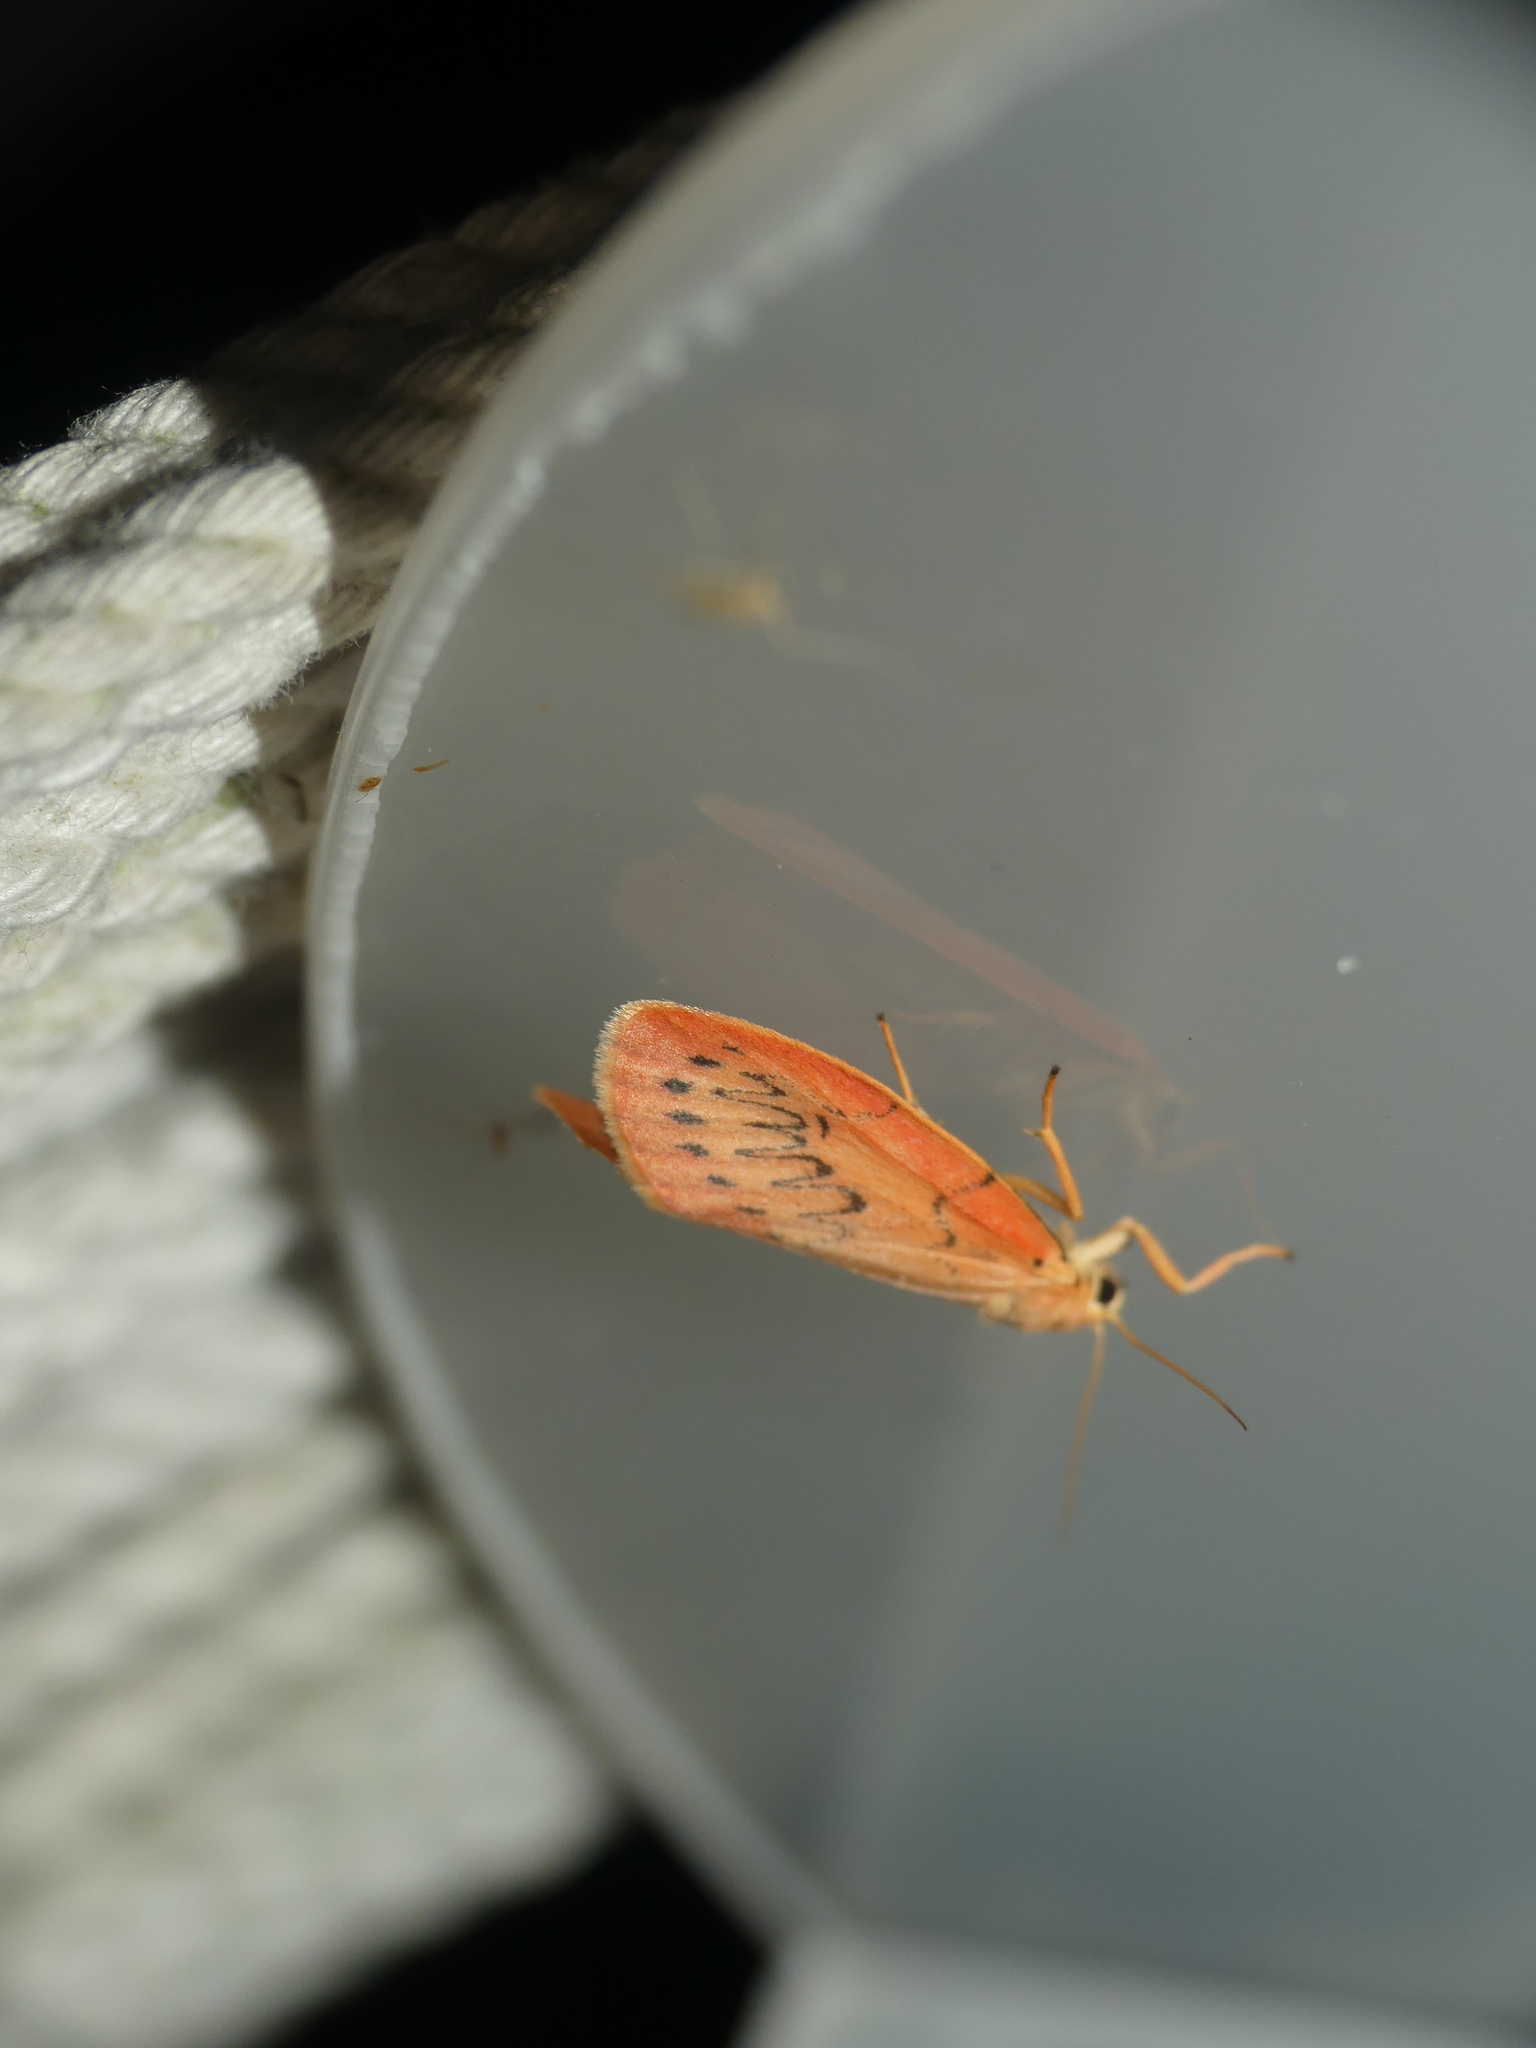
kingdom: Animalia
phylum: Arthropoda
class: Insecta
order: Lepidoptera
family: Erebidae
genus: Miltochrista
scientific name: Miltochrista miniata
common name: Rosy footman
